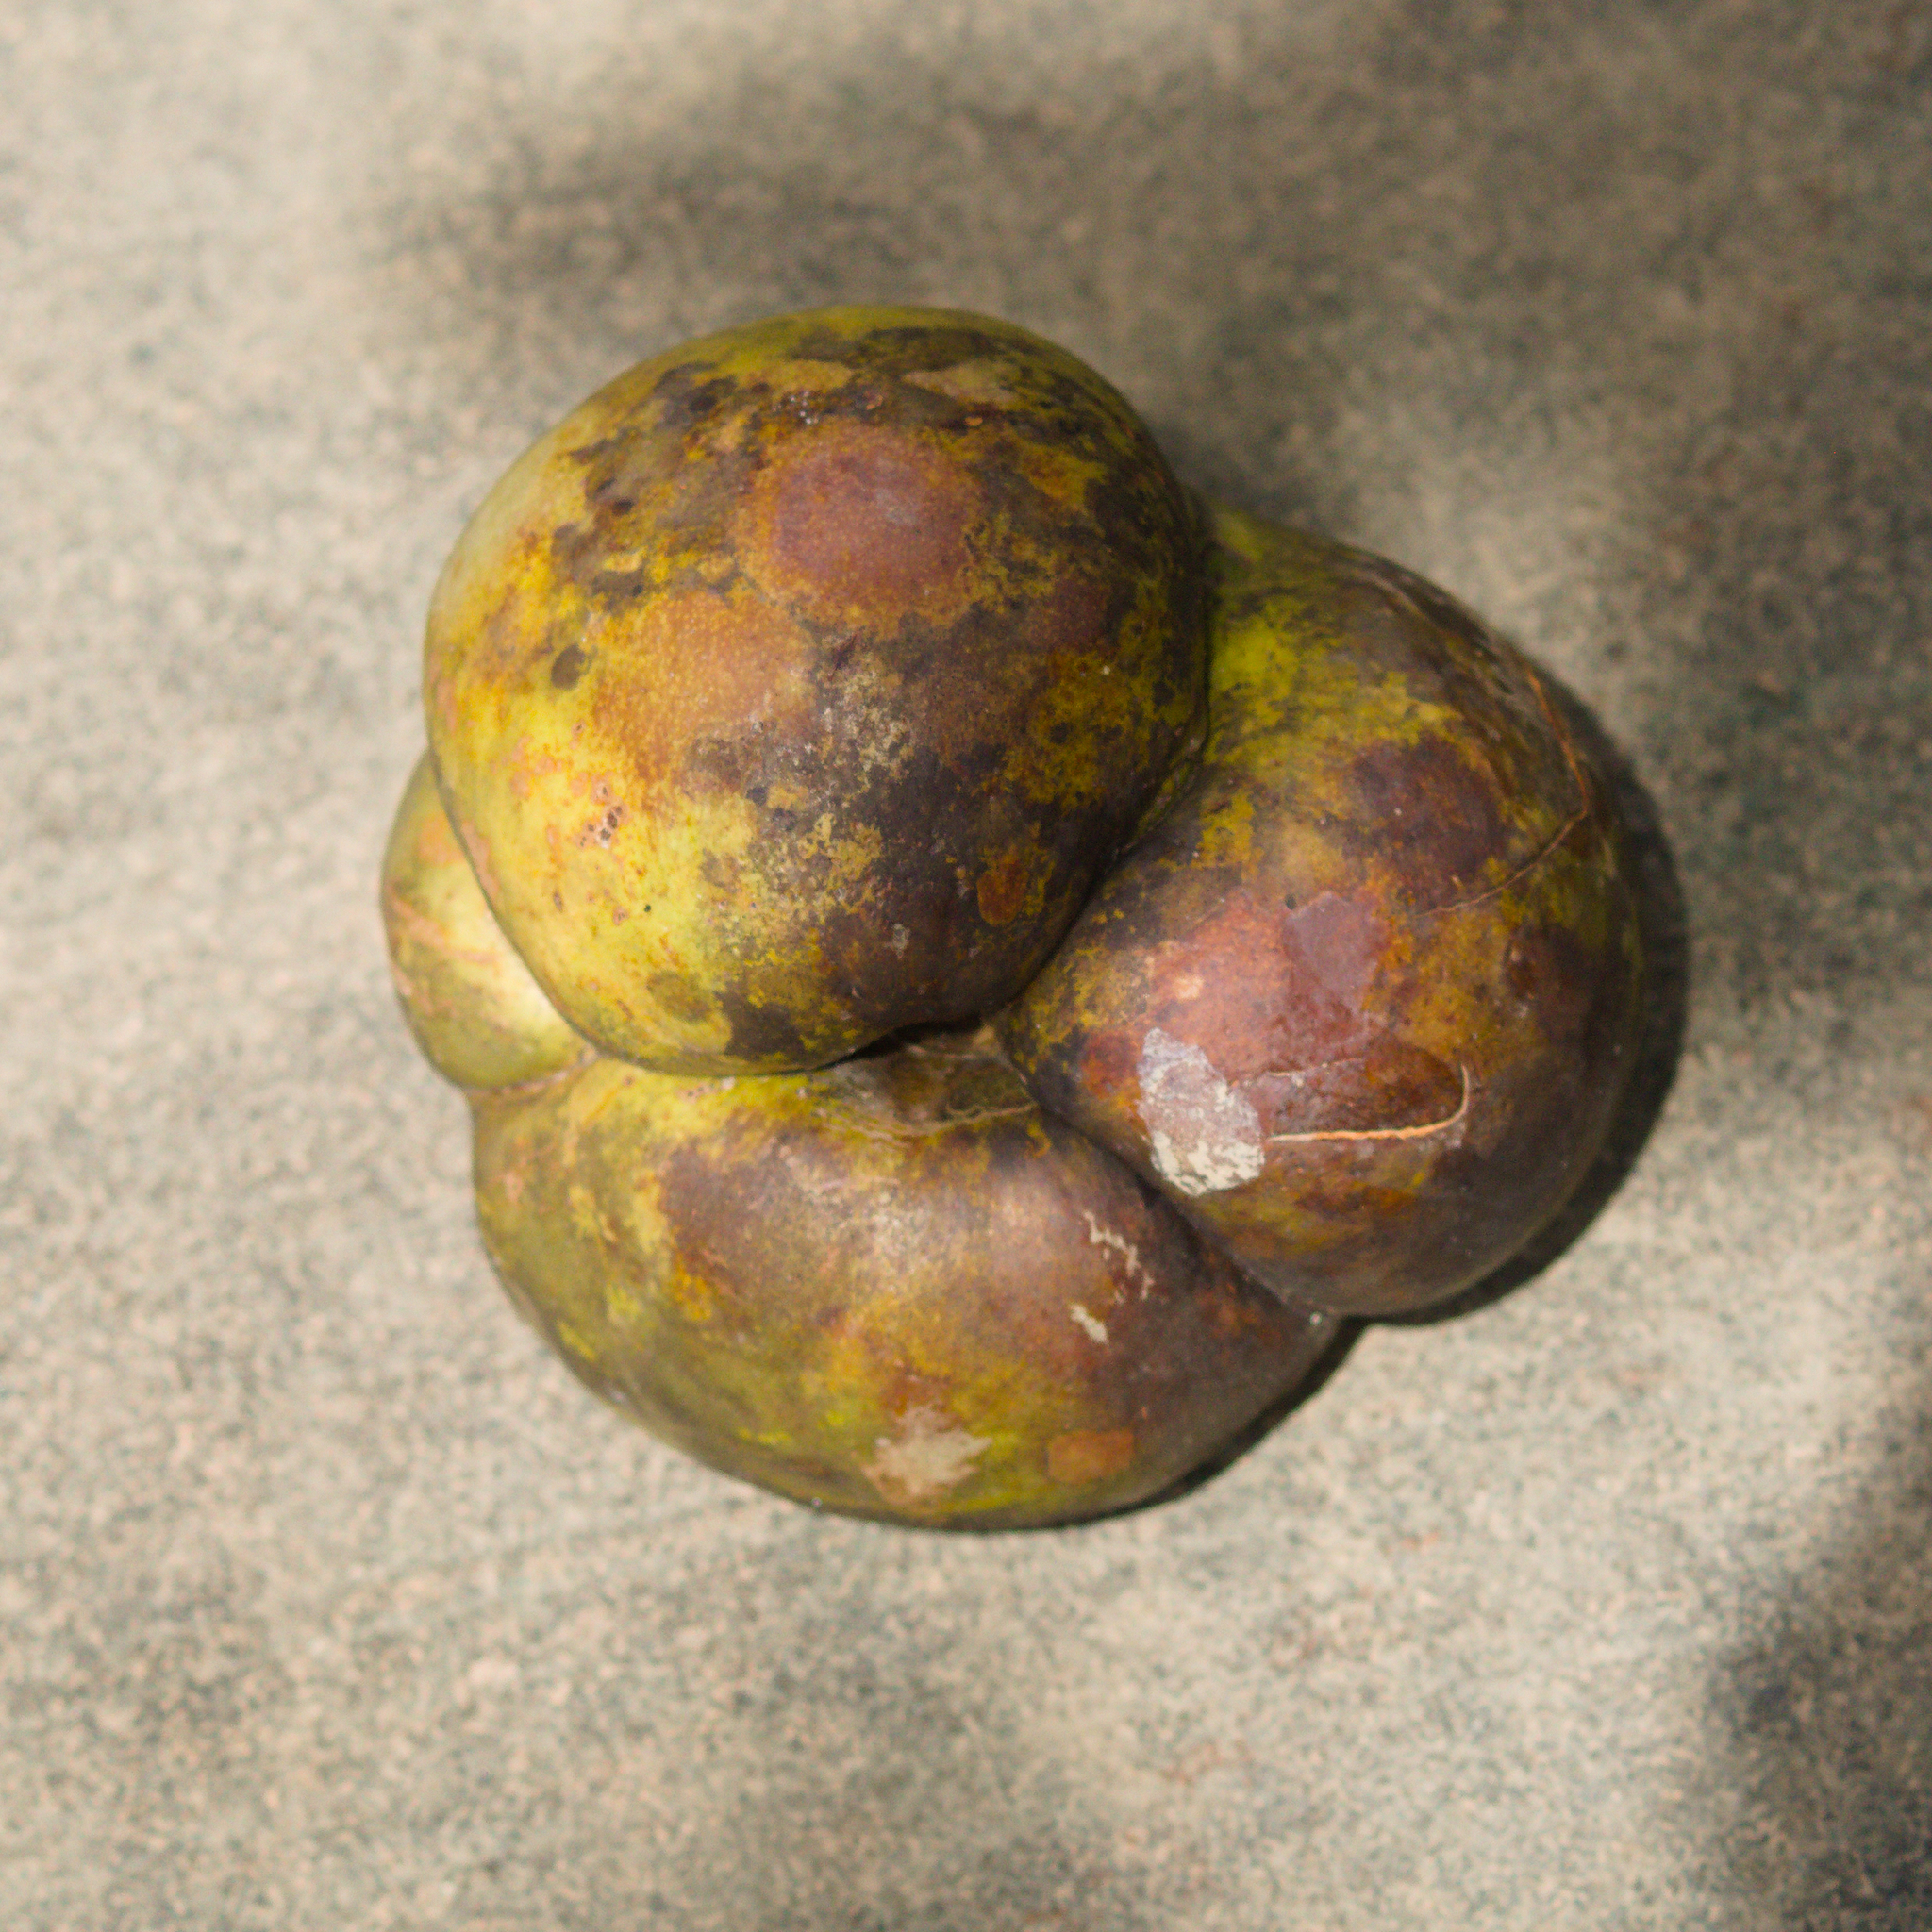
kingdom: Plantae
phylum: Tracheophyta
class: Magnoliopsida
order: Dilleniales
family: Dilleniaceae
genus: Dillenia
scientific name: Dillenia indica
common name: Elephant apple
